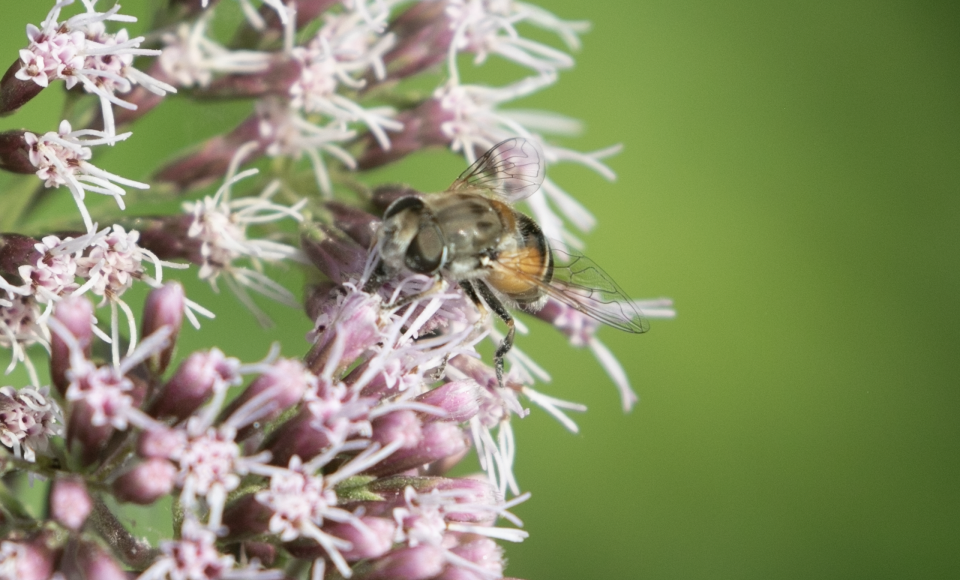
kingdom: Animalia
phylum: Arthropoda
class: Insecta
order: Diptera
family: Syrphidae
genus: Eristalis
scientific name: Eristalis arbustorum
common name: Hover fly
